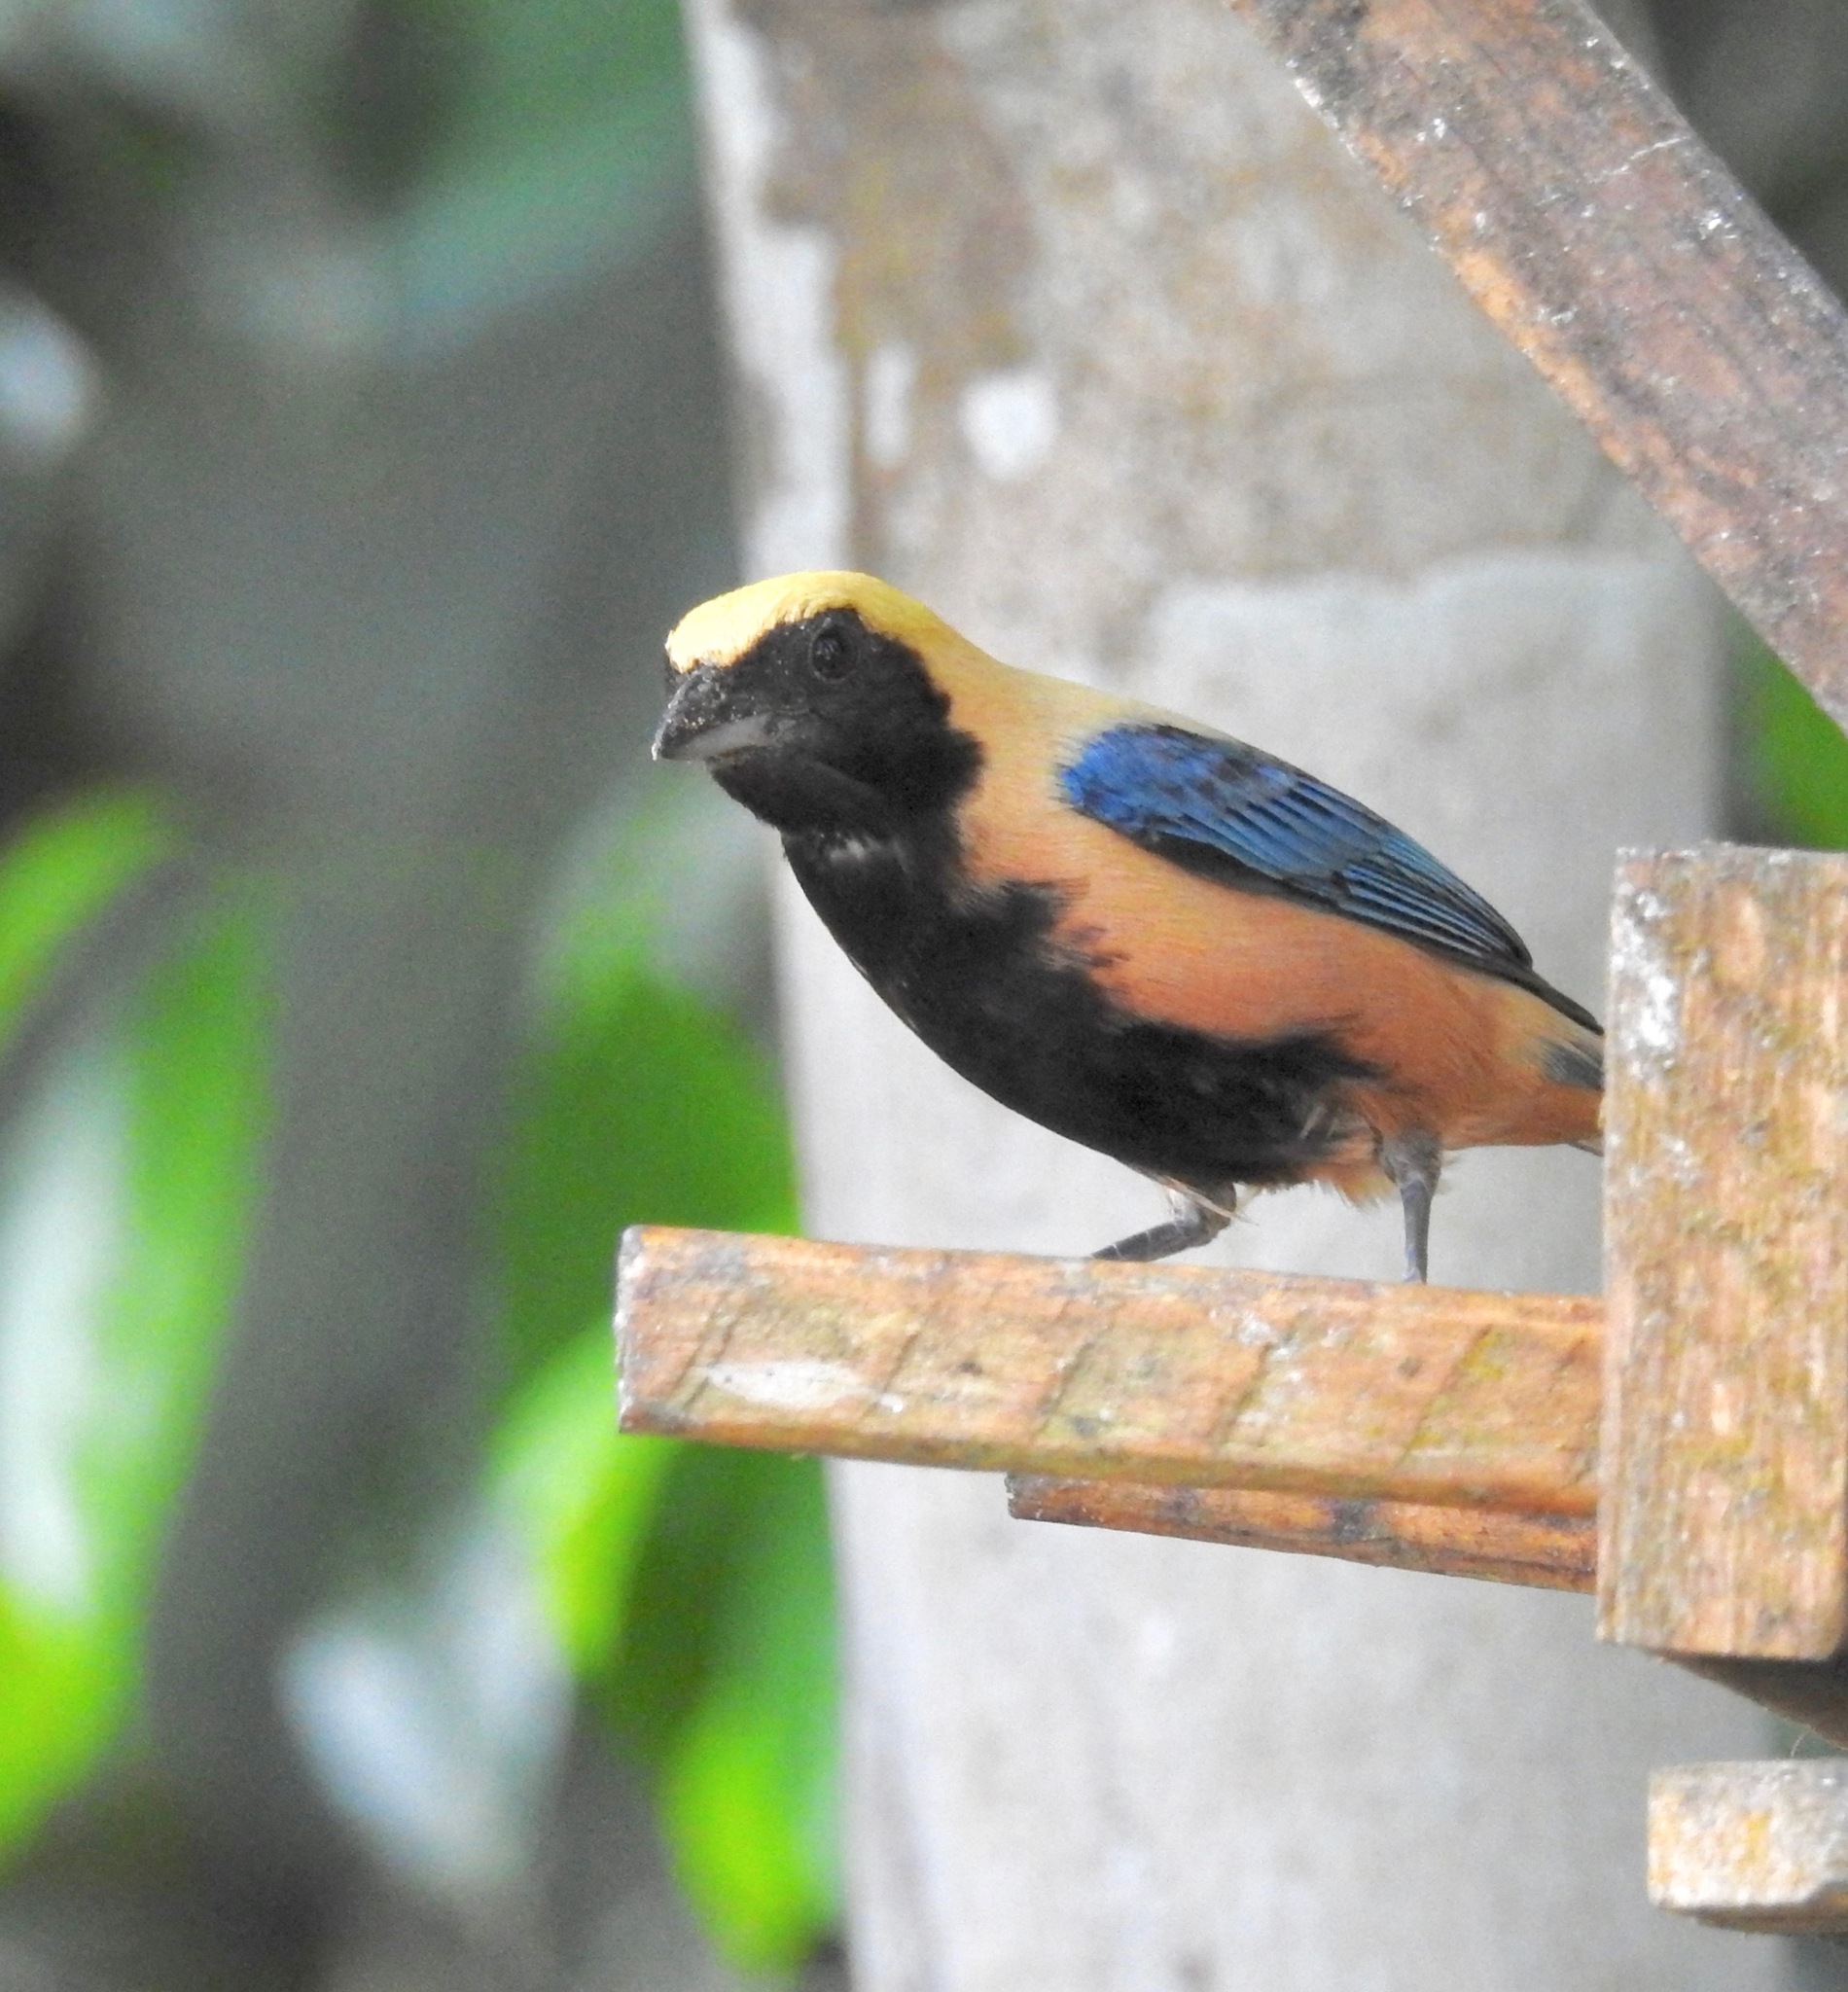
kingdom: Animalia
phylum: Chordata
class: Aves
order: Passeriformes
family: Thraupidae
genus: Stilpnia
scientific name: Stilpnia cayana
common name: Burnished-buff tanager
